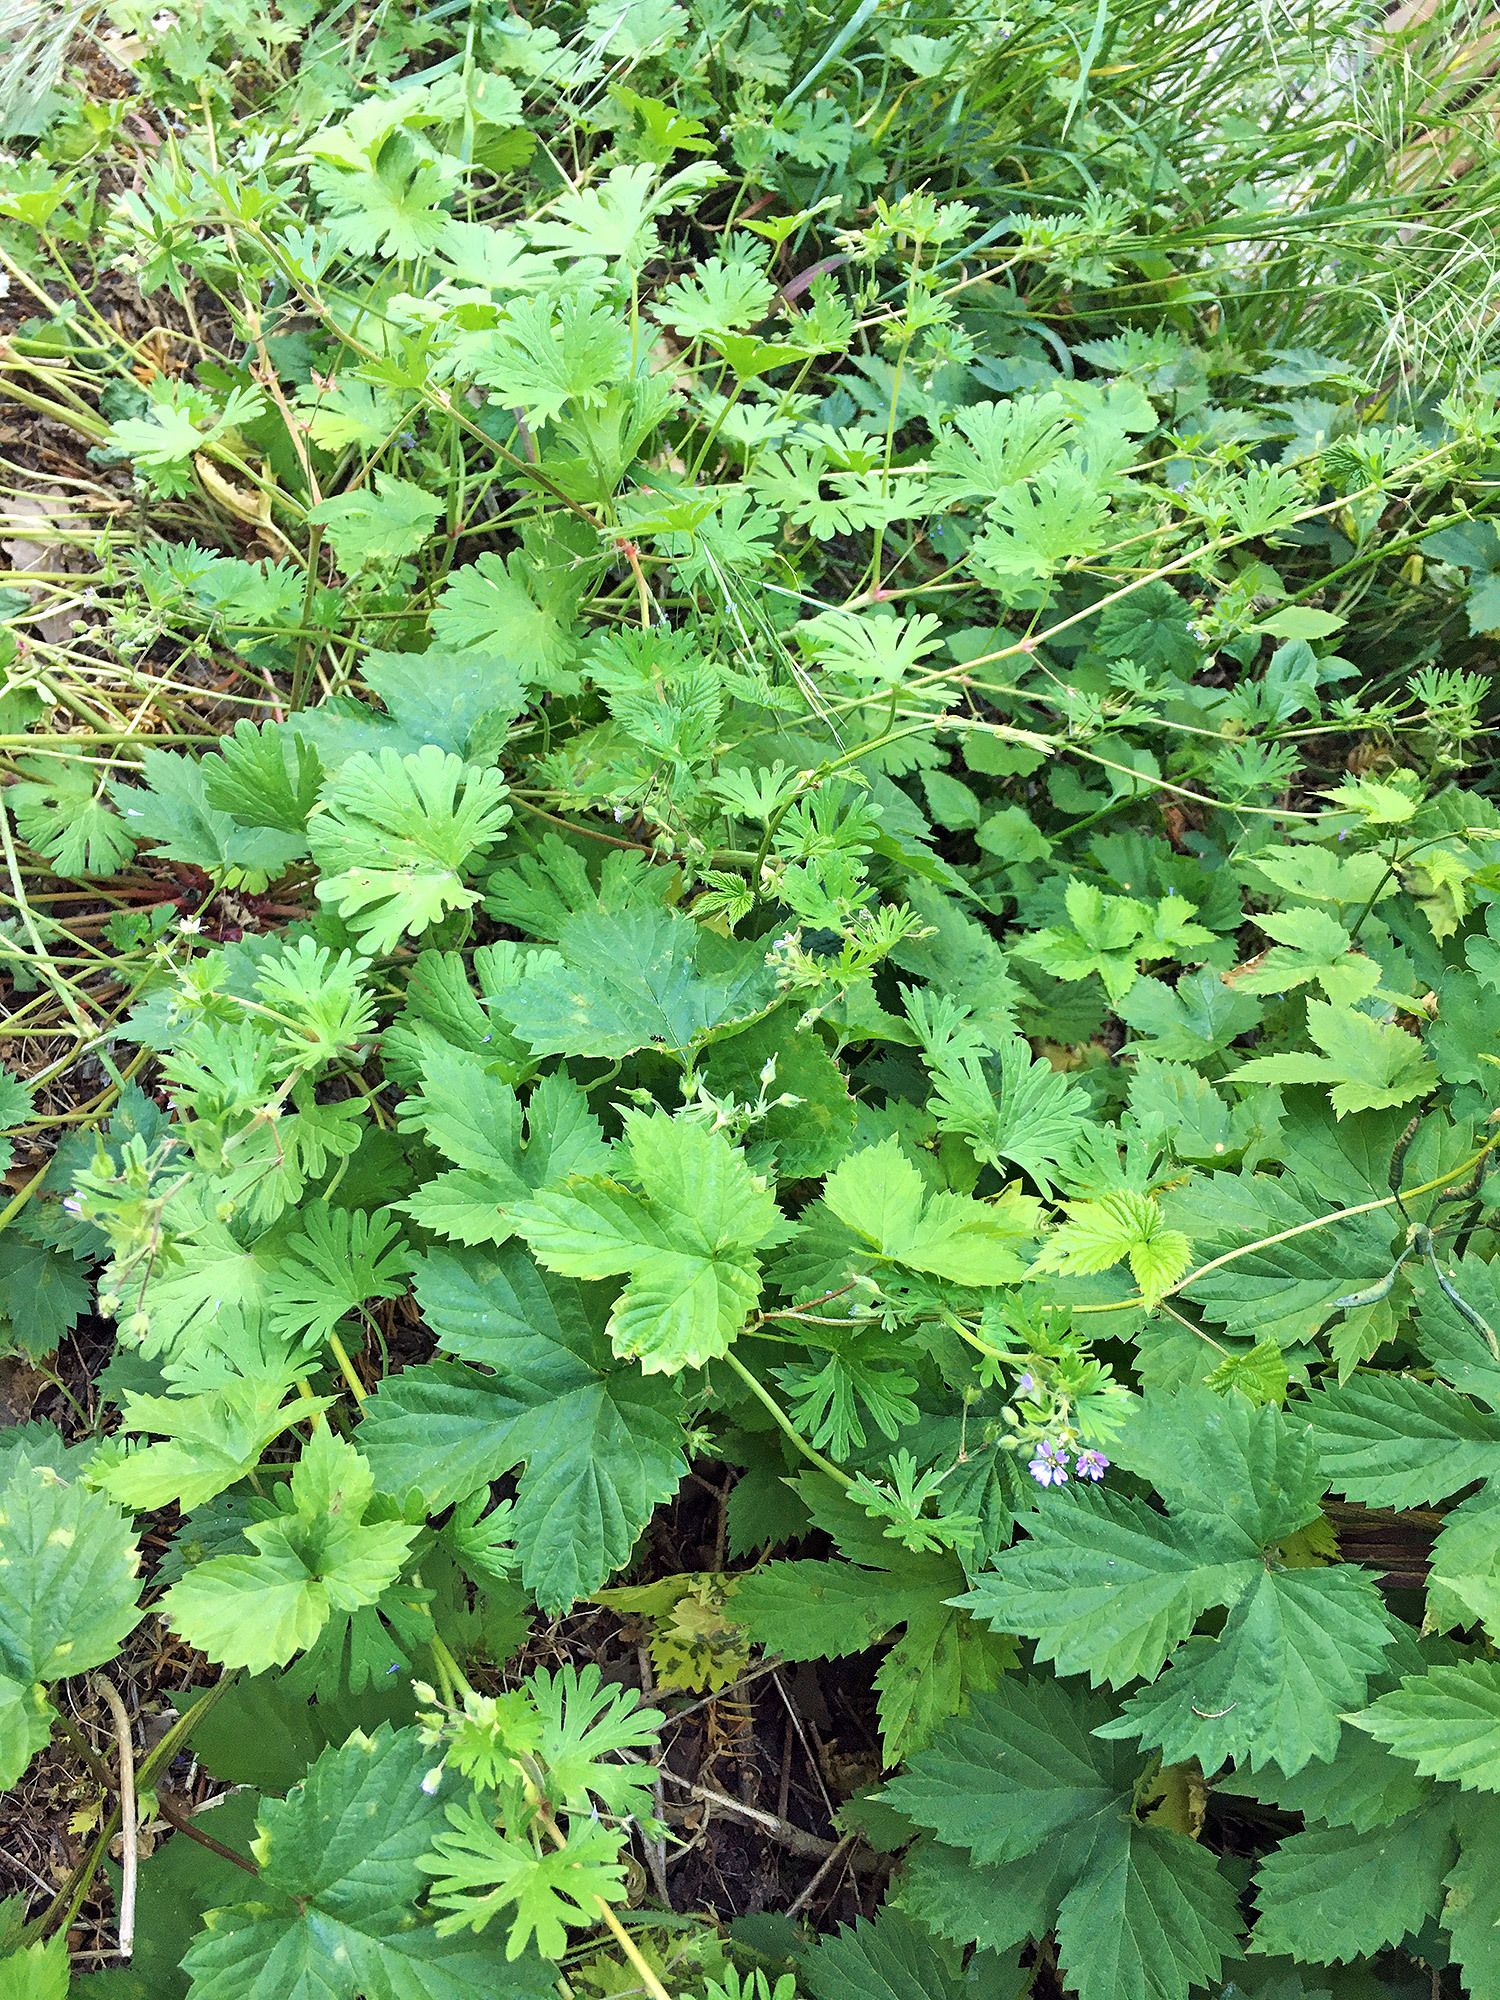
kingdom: Plantae
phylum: Tracheophyta
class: Magnoliopsida
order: Geraniales
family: Geraniaceae
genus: Geranium
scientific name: Geranium pusillum
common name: Small geranium
